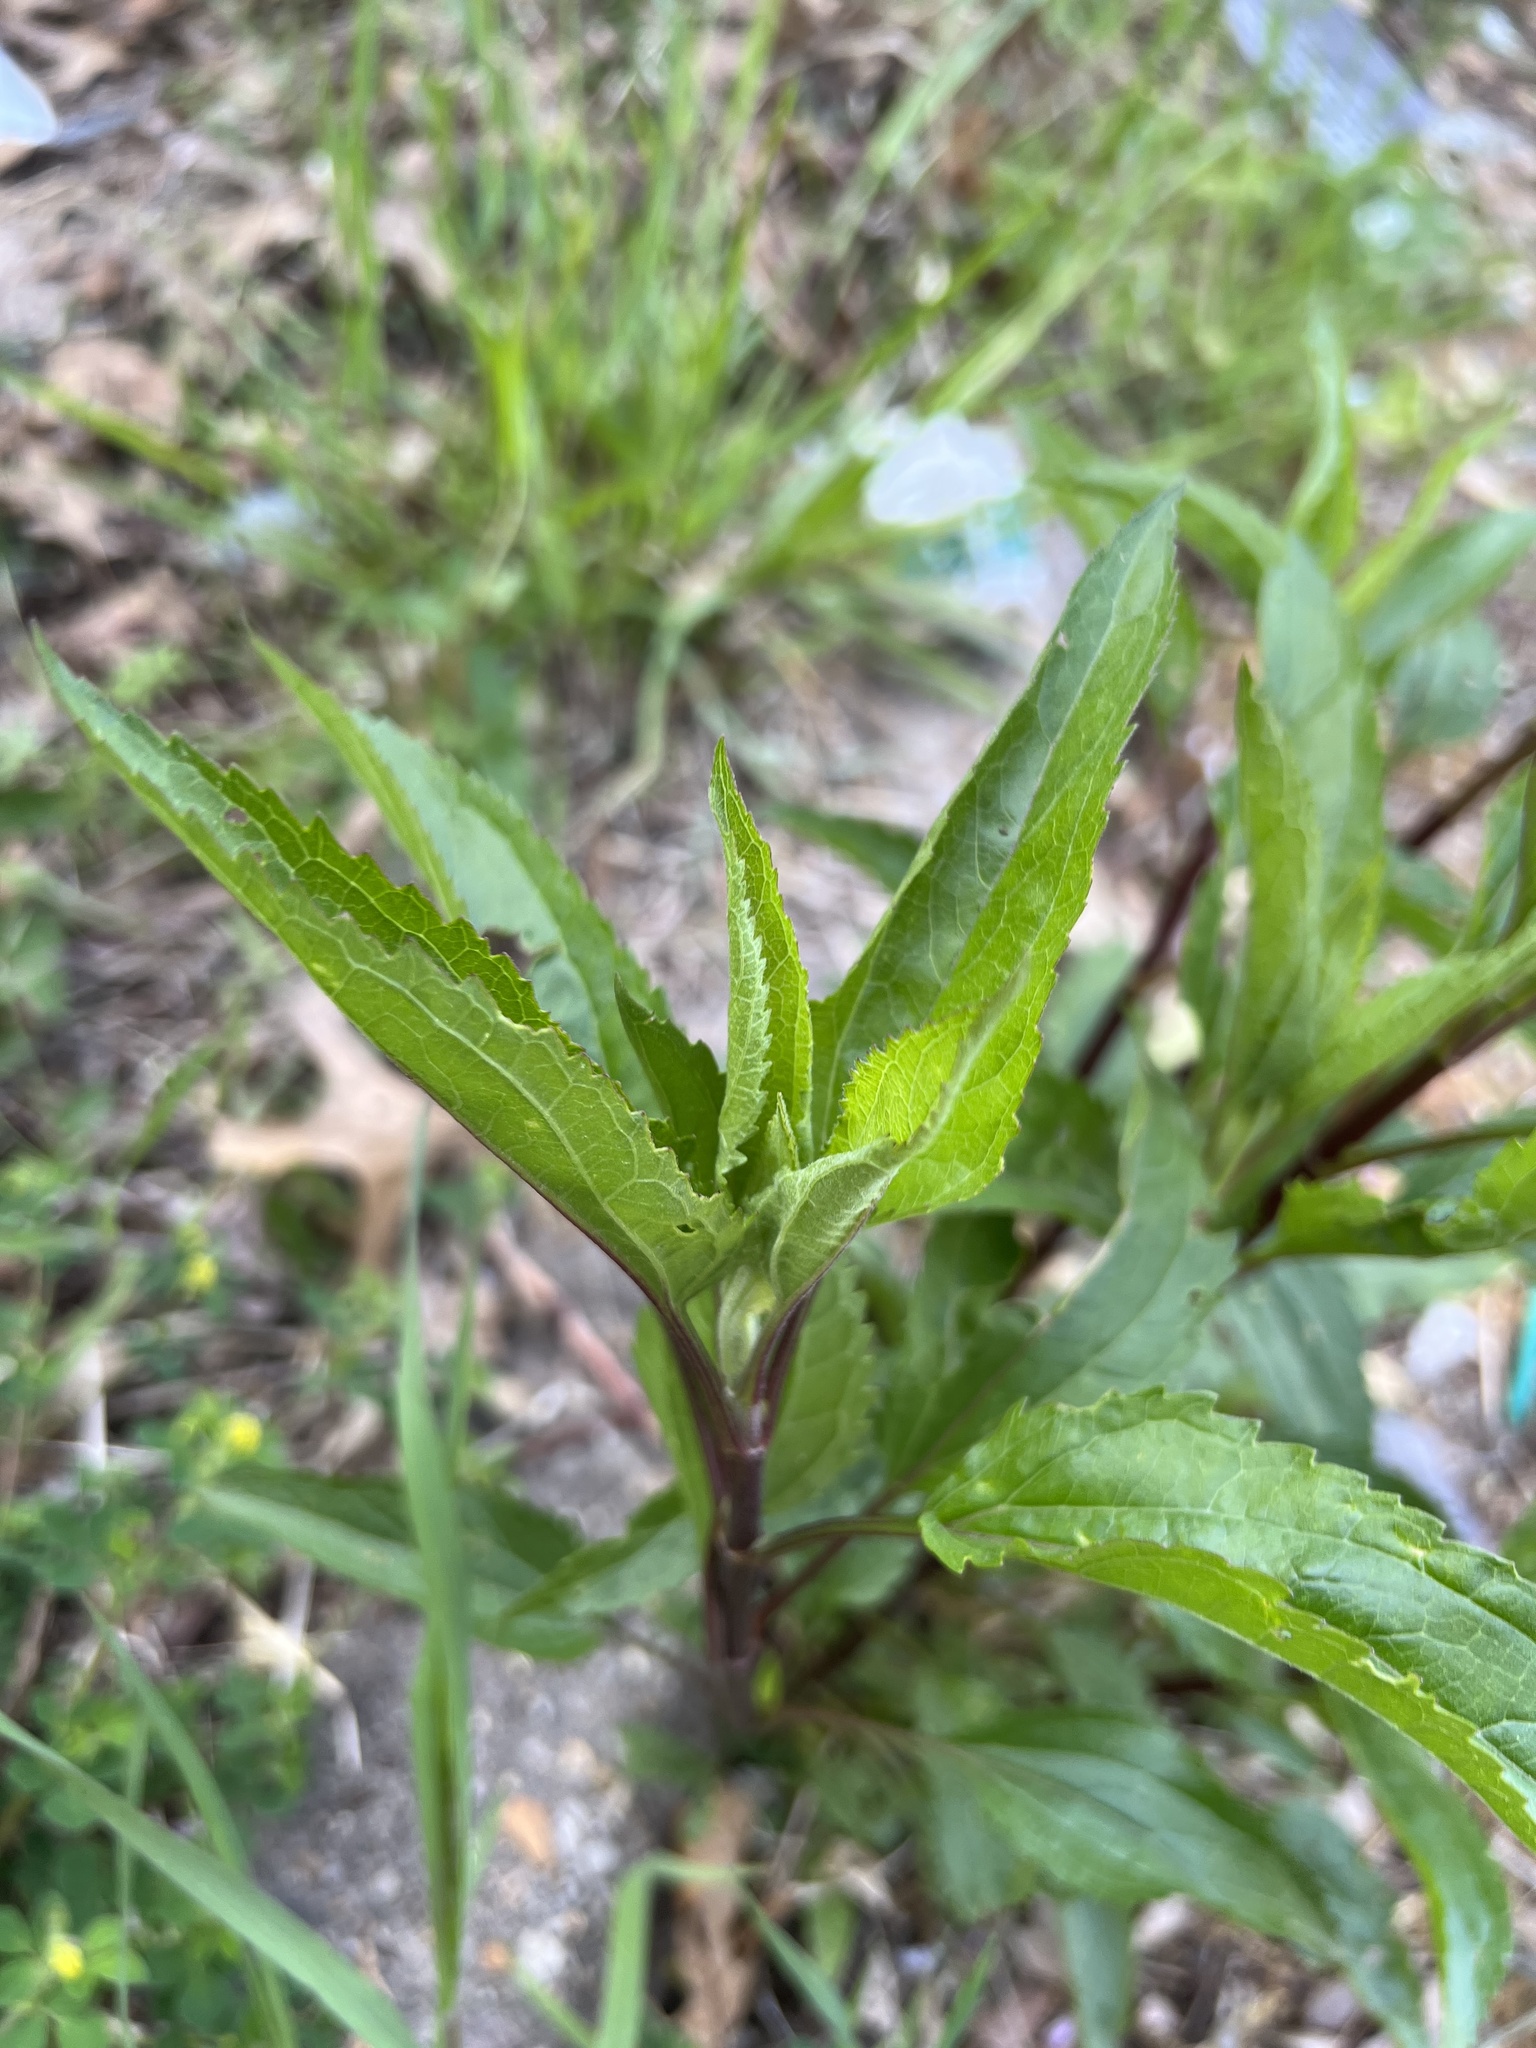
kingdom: Plantae
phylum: Tracheophyta
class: Magnoliopsida
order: Asterales
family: Asteraceae
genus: Eupatorium
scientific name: Eupatorium serotinum
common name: Late boneset
